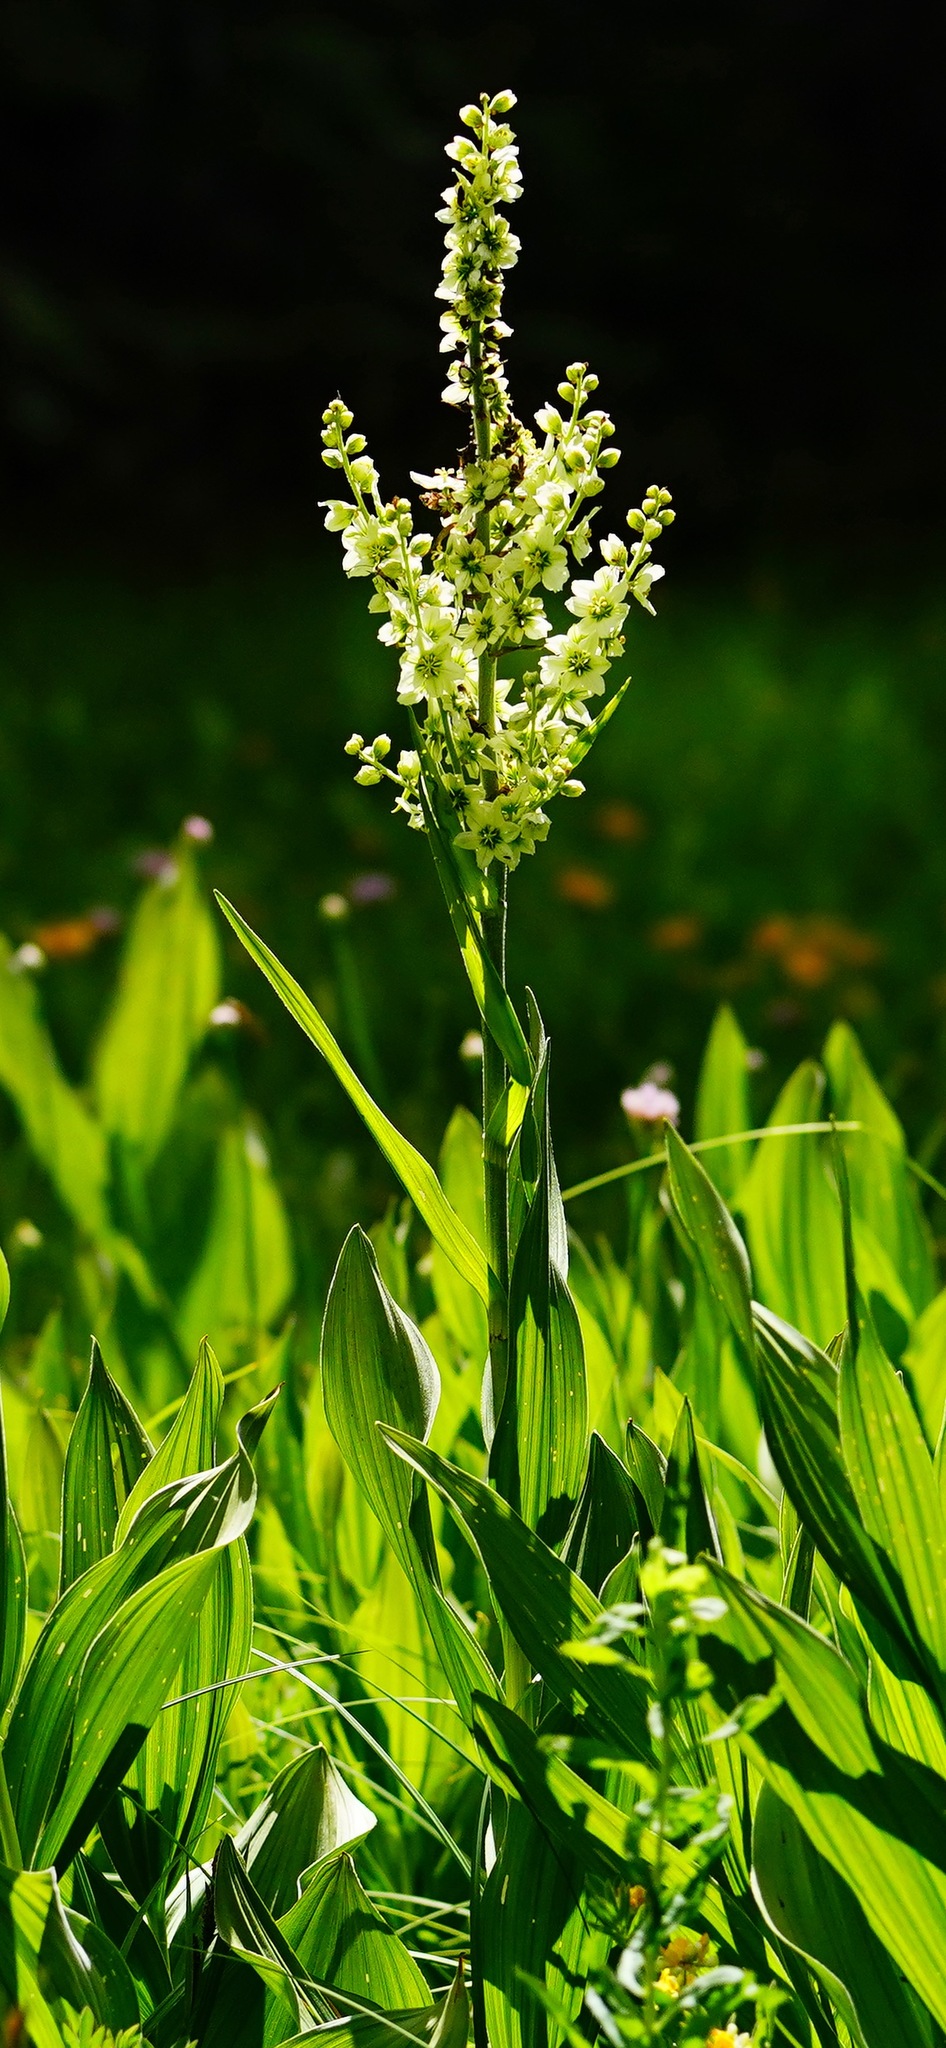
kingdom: Plantae
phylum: Tracheophyta
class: Liliopsida
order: Liliales
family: Melanthiaceae
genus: Veratrum
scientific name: Veratrum californicum
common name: California veratrum
